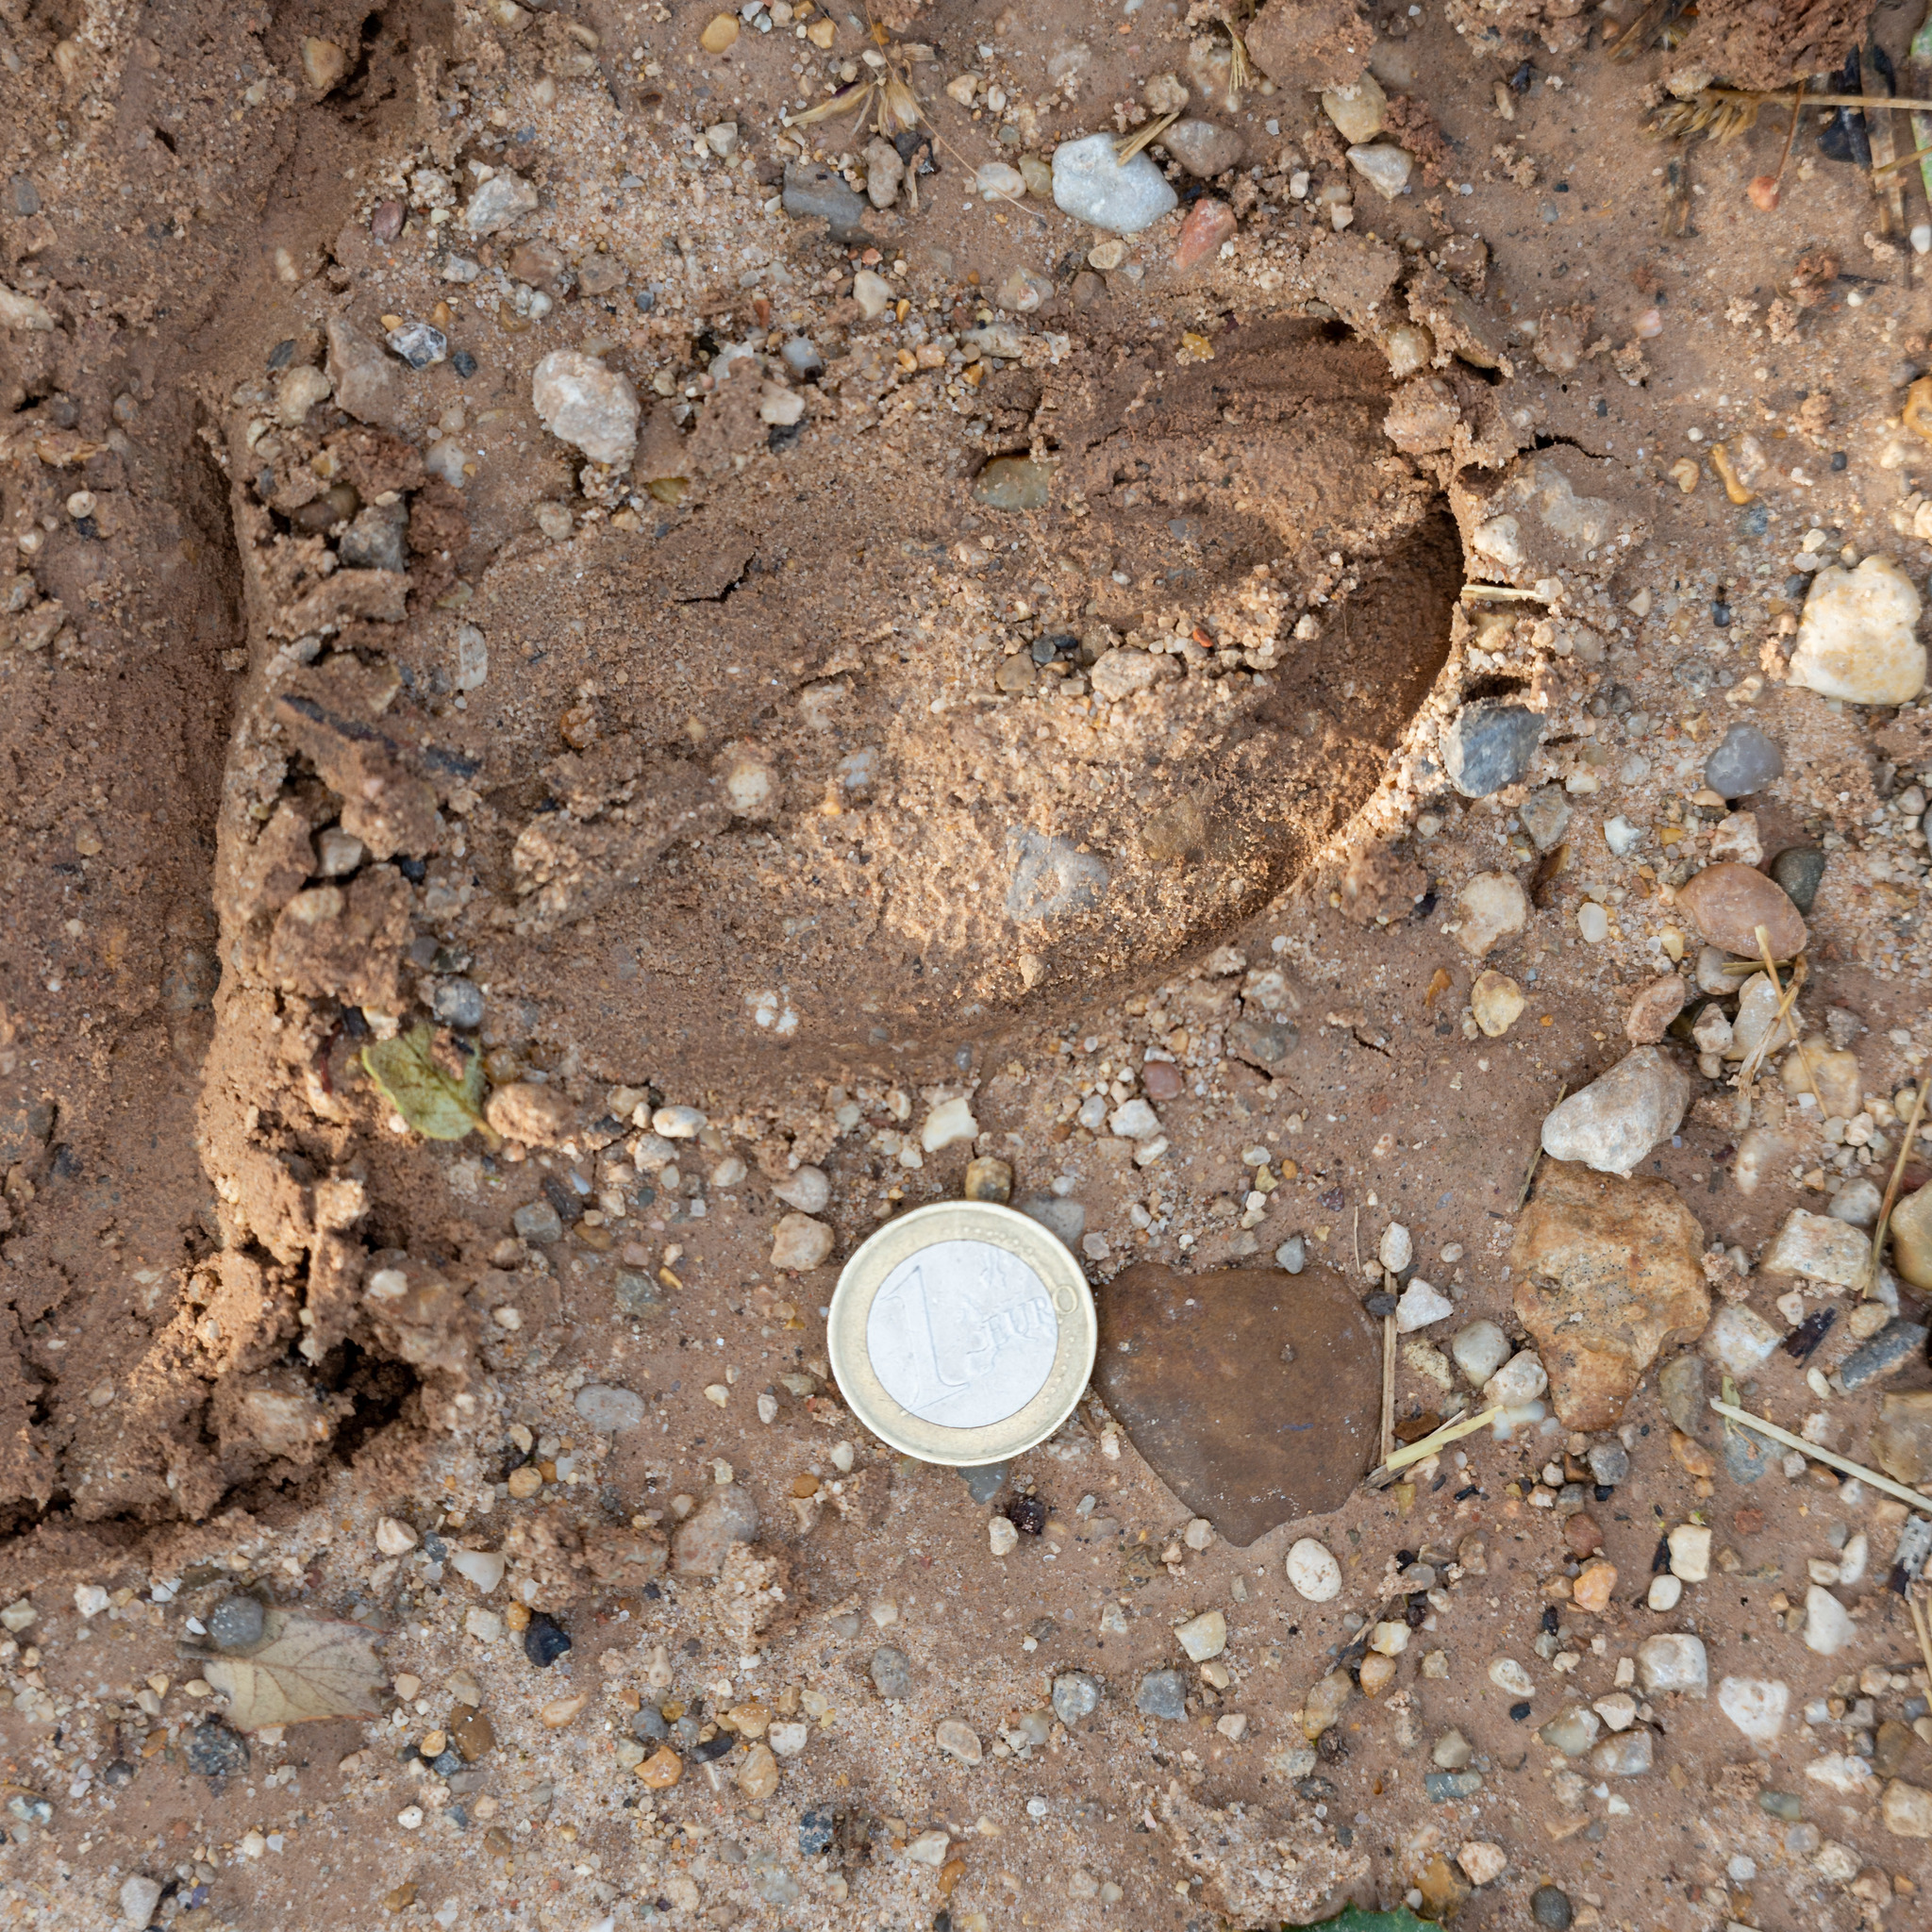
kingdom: Animalia
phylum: Chordata
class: Mammalia
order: Artiodactyla
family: Cervidae
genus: Cervus
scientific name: Cervus elaphus
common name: Red deer
